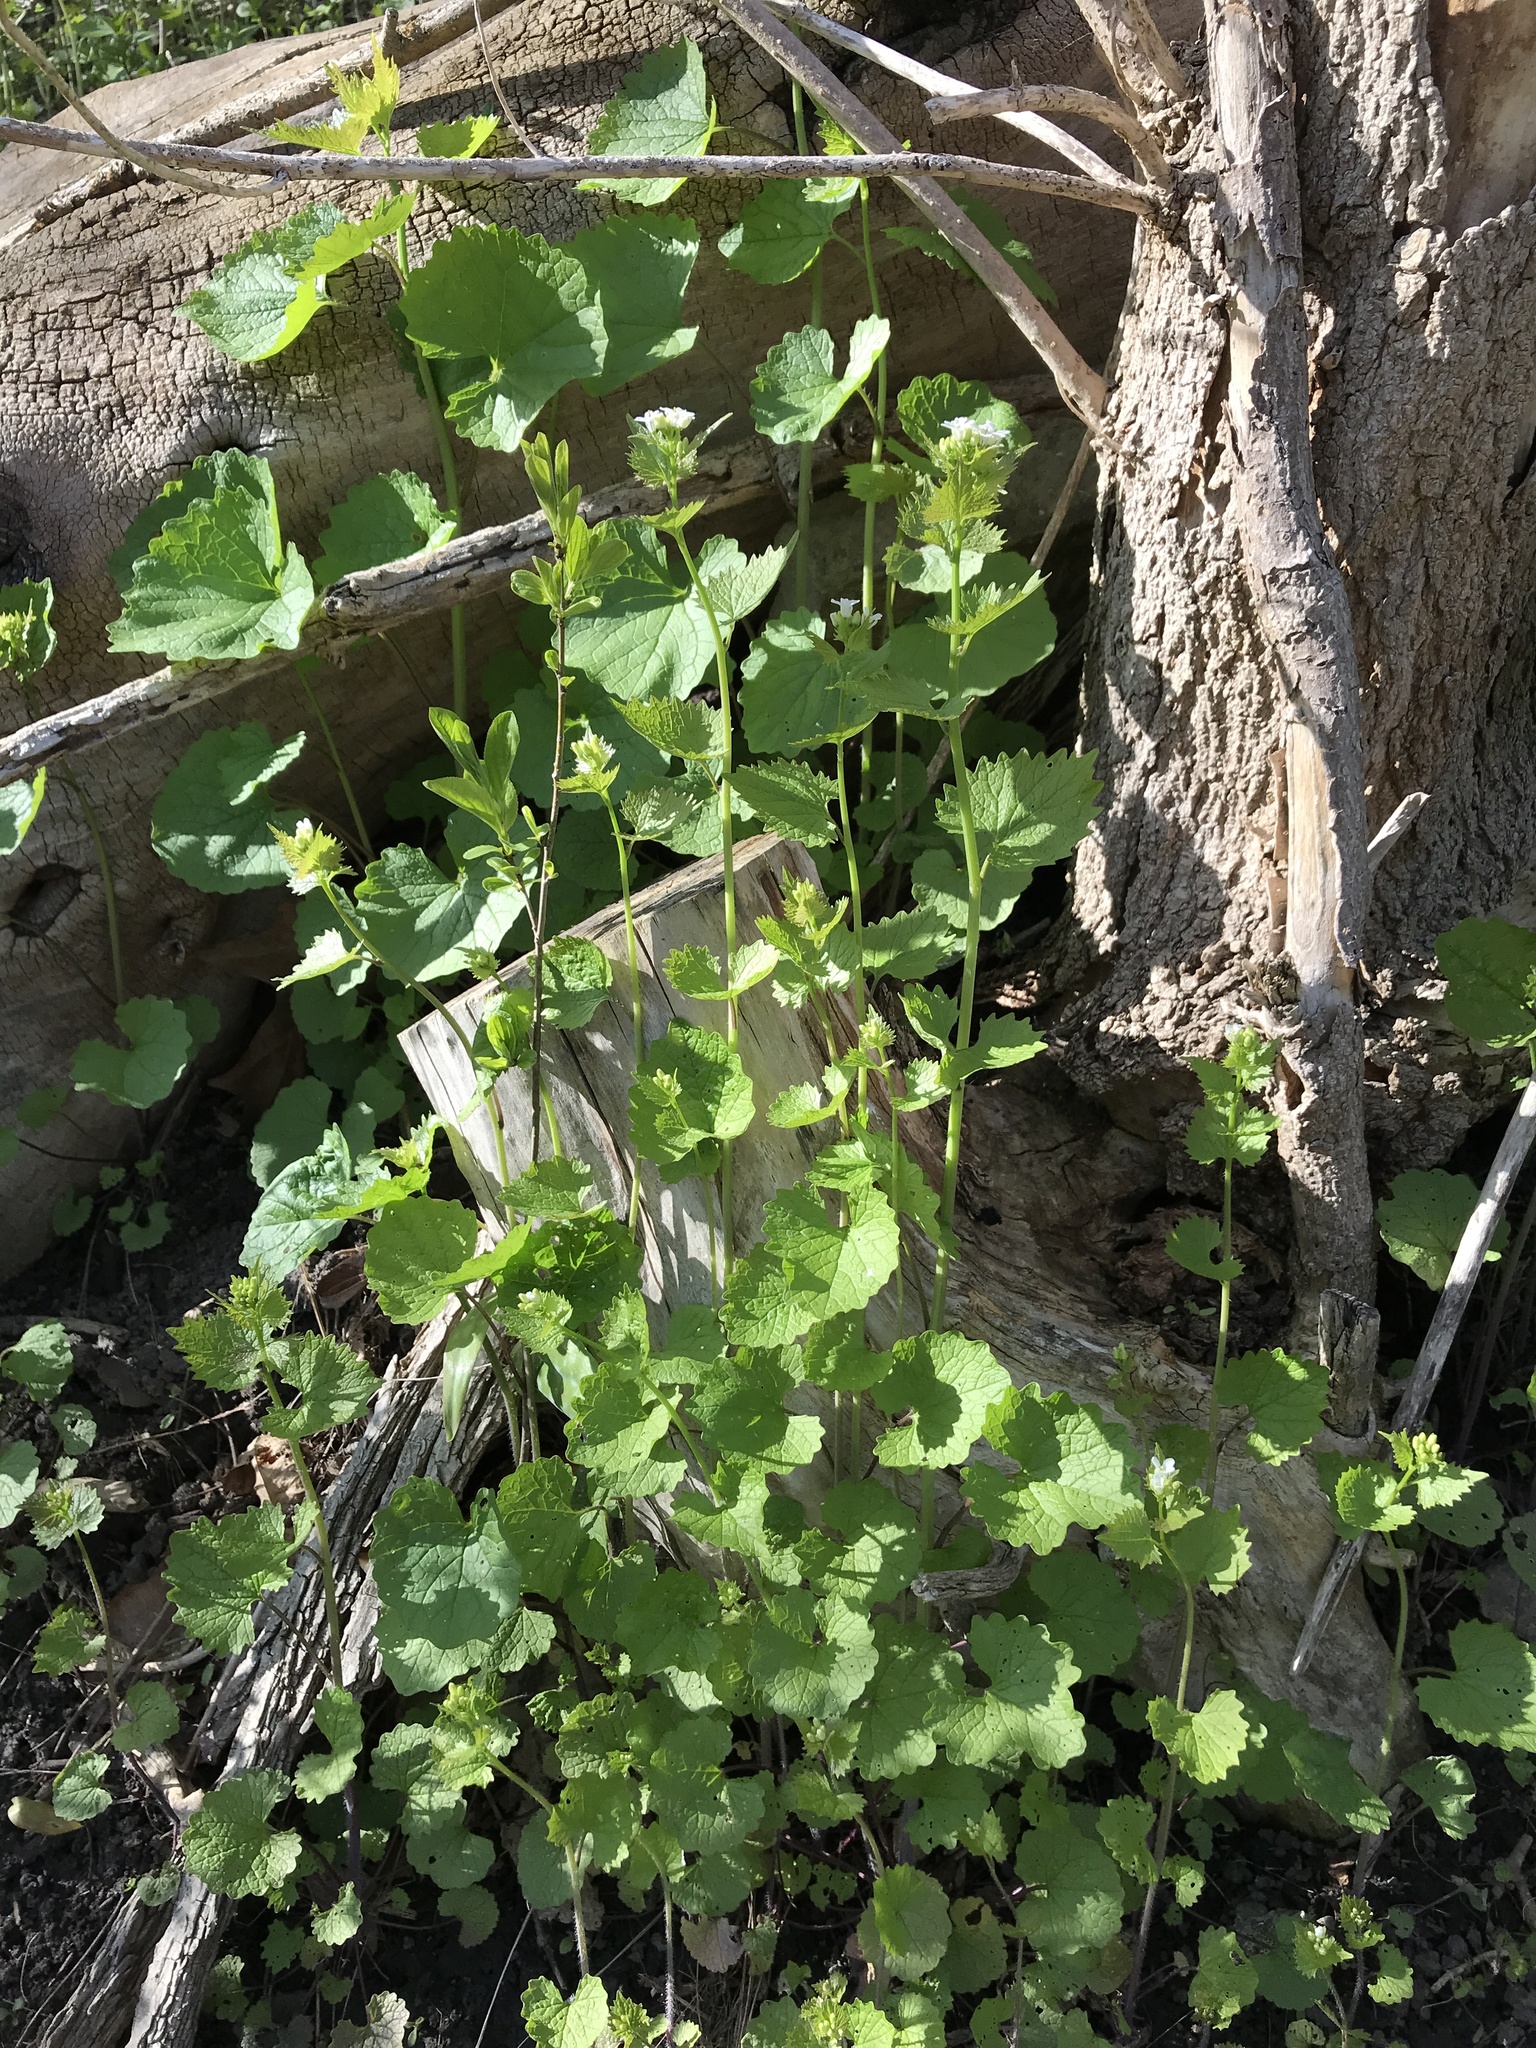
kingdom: Plantae
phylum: Tracheophyta
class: Magnoliopsida
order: Brassicales
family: Brassicaceae
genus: Alliaria
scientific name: Alliaria petiolata
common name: Garlic mustard
